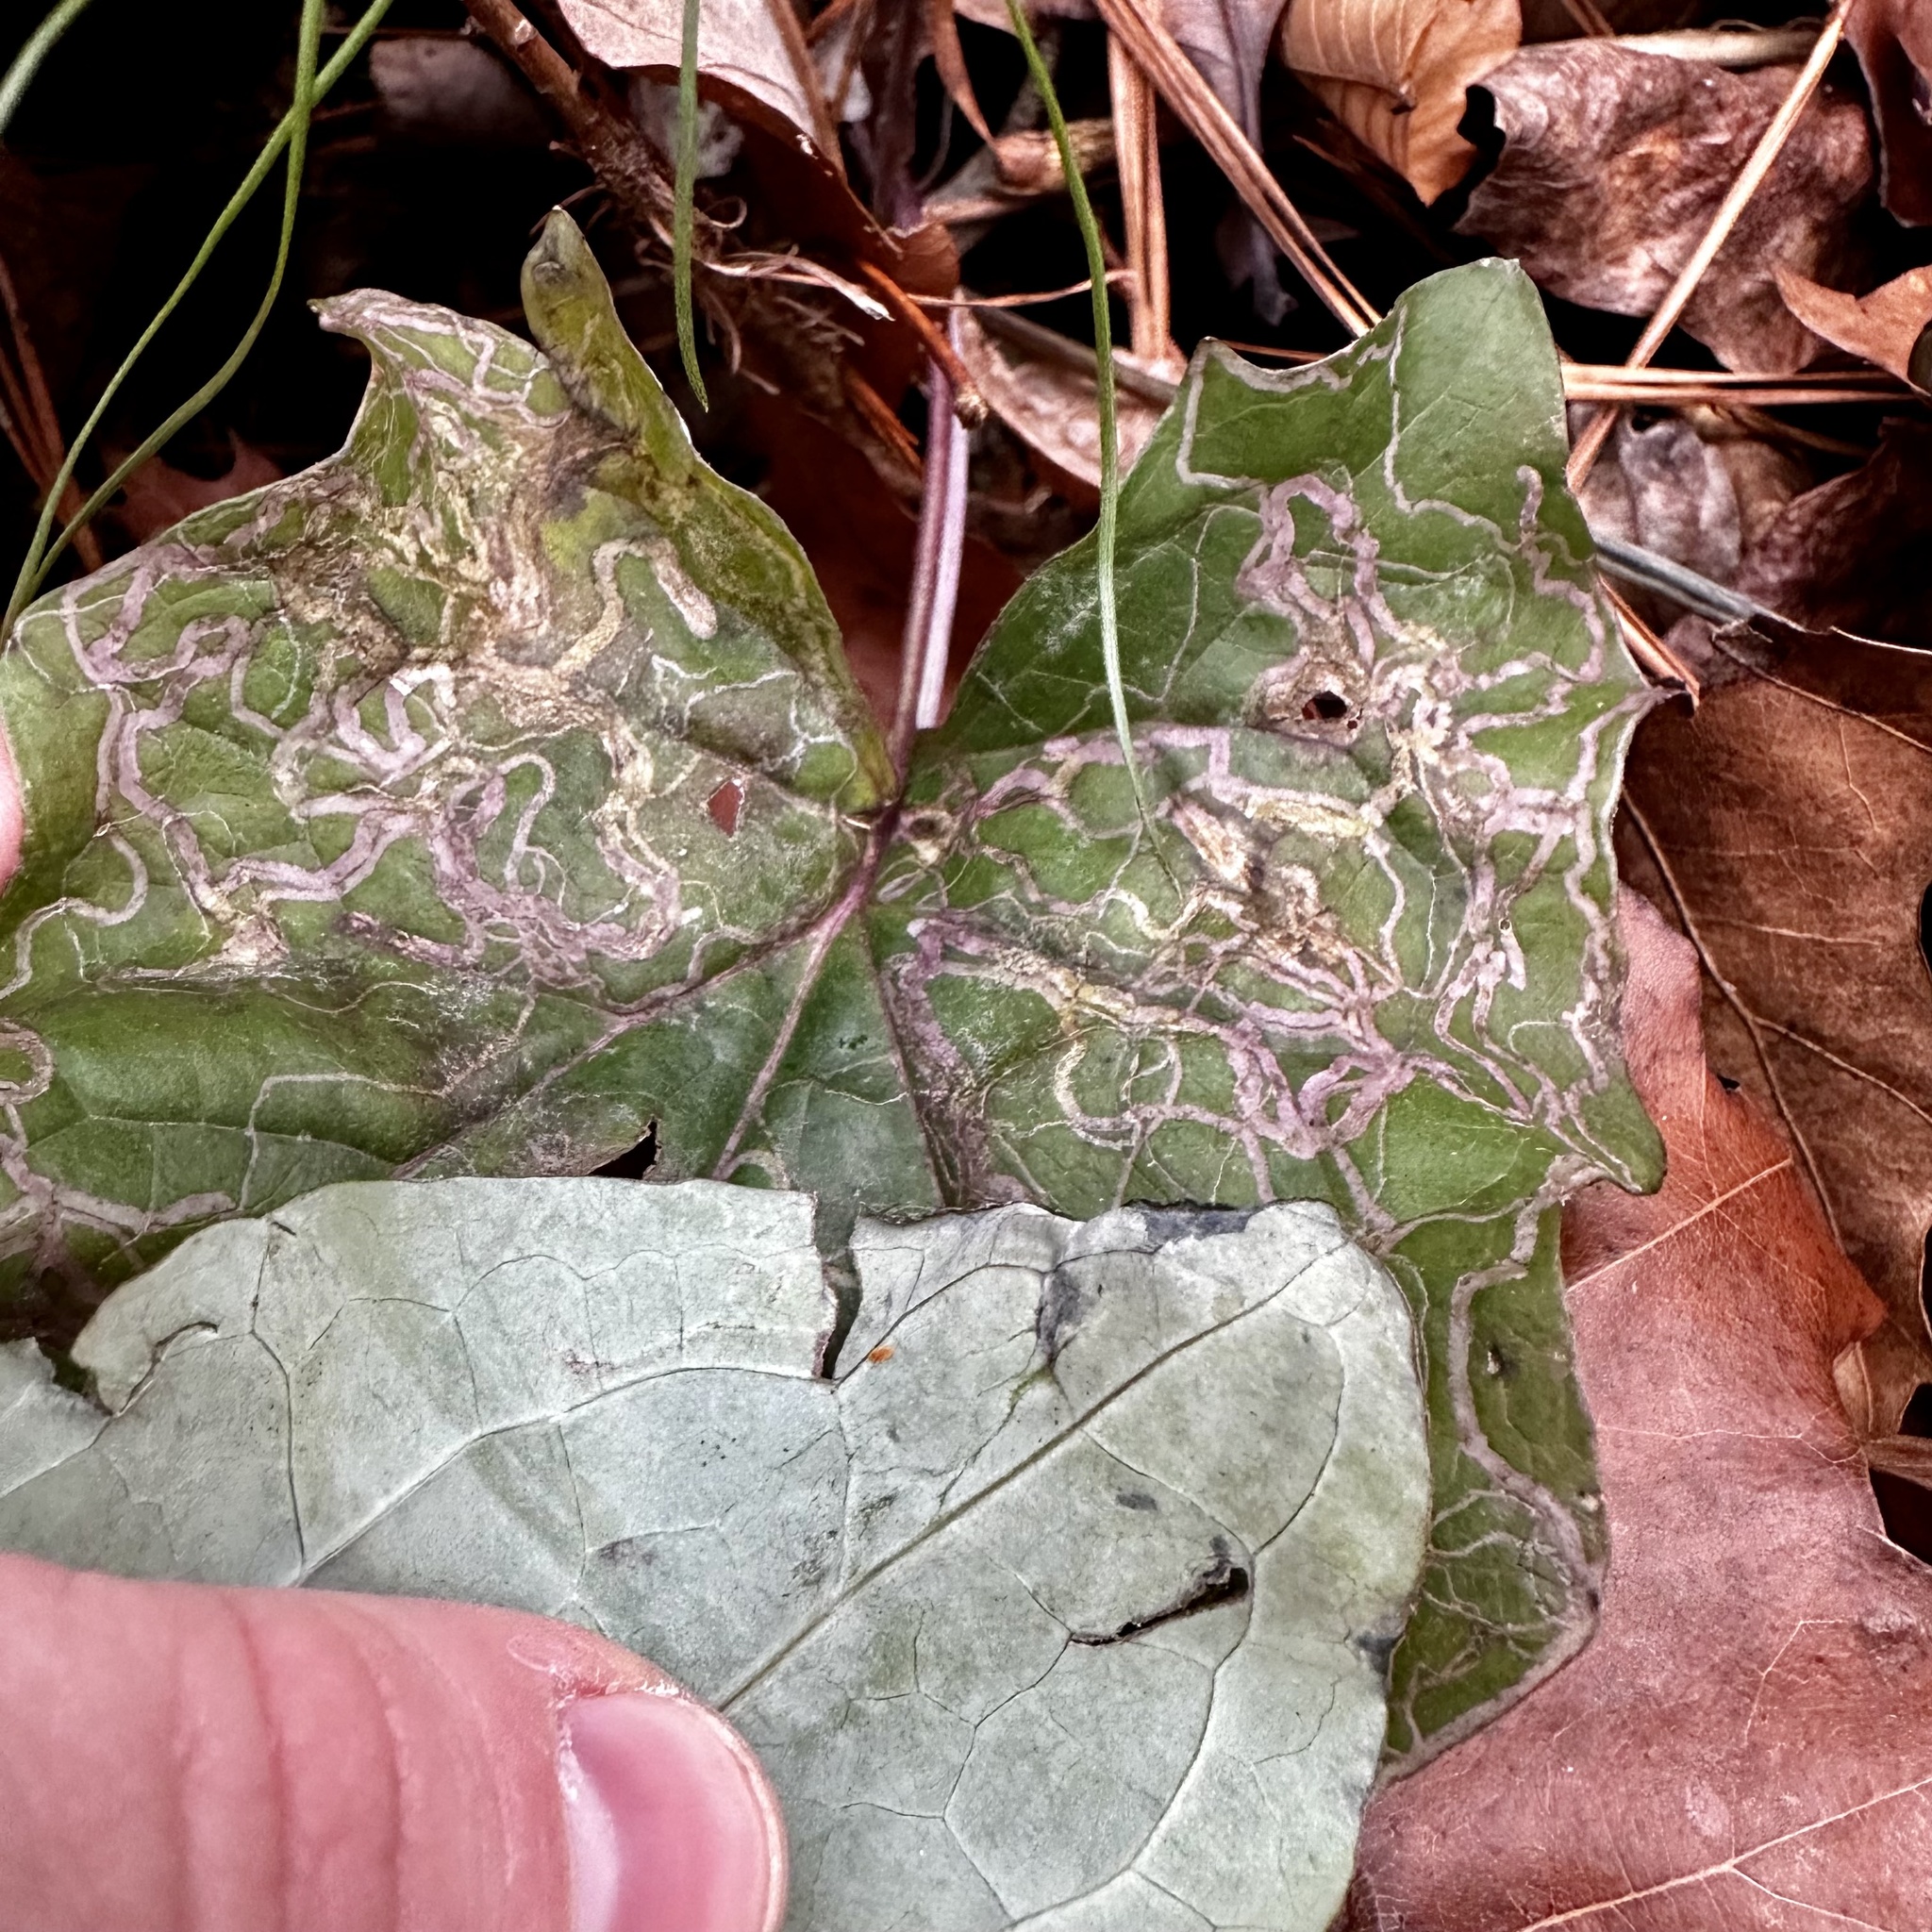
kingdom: Animalia
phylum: Arthropoda
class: Insecta
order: Lepidoptera
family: Gracillariidae
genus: Phyllocnistis
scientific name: Phyllocnistis insignis
